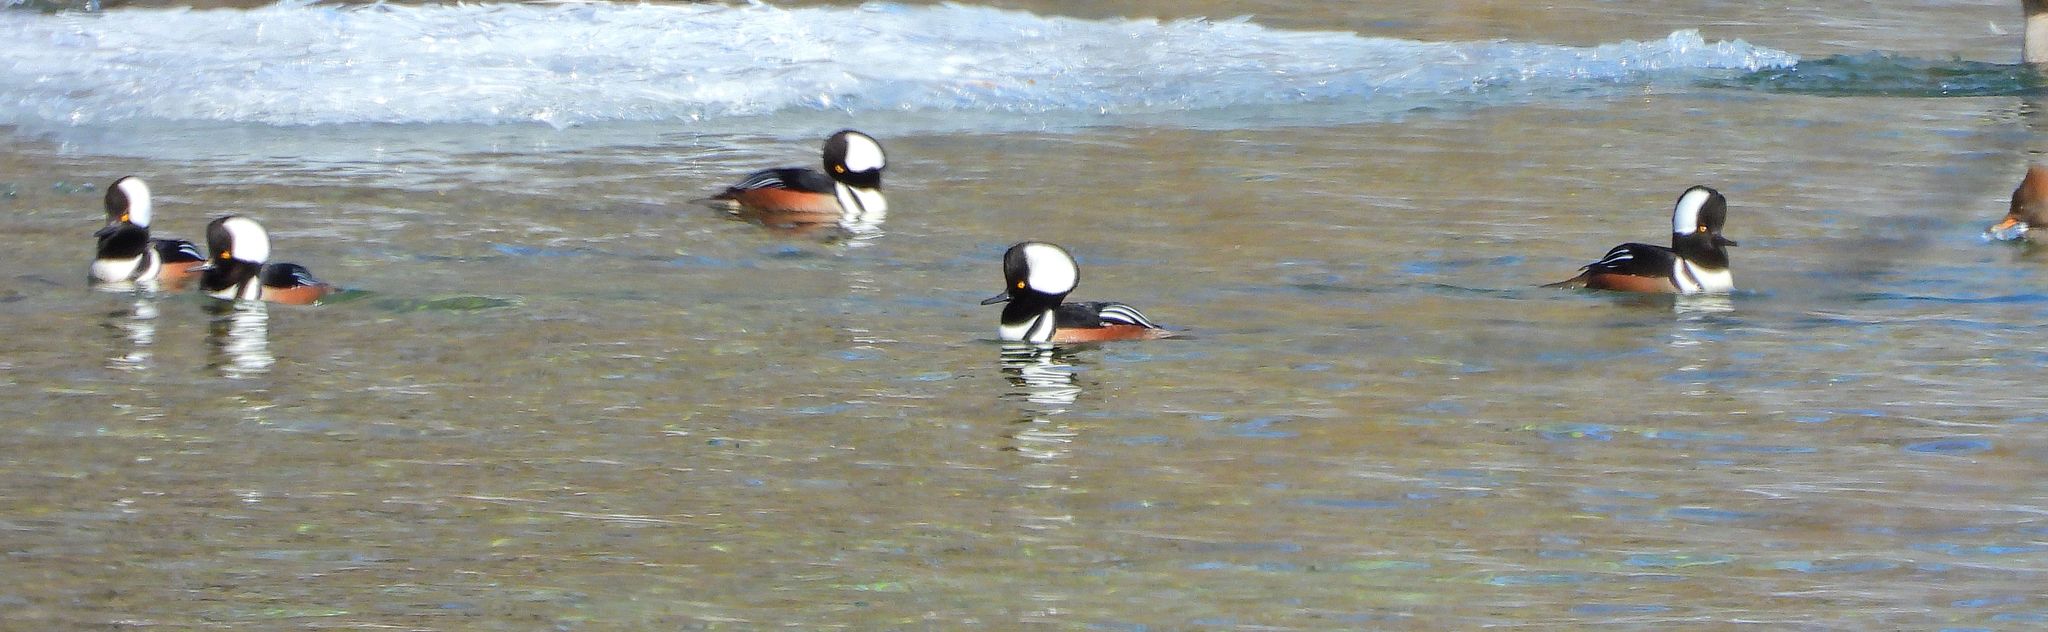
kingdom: Animalia
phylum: Chordata
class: Aves
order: Anseriformes
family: Anatidae
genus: Lophodytes
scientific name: Lophodytes cucullatus
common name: Hooded merganser
